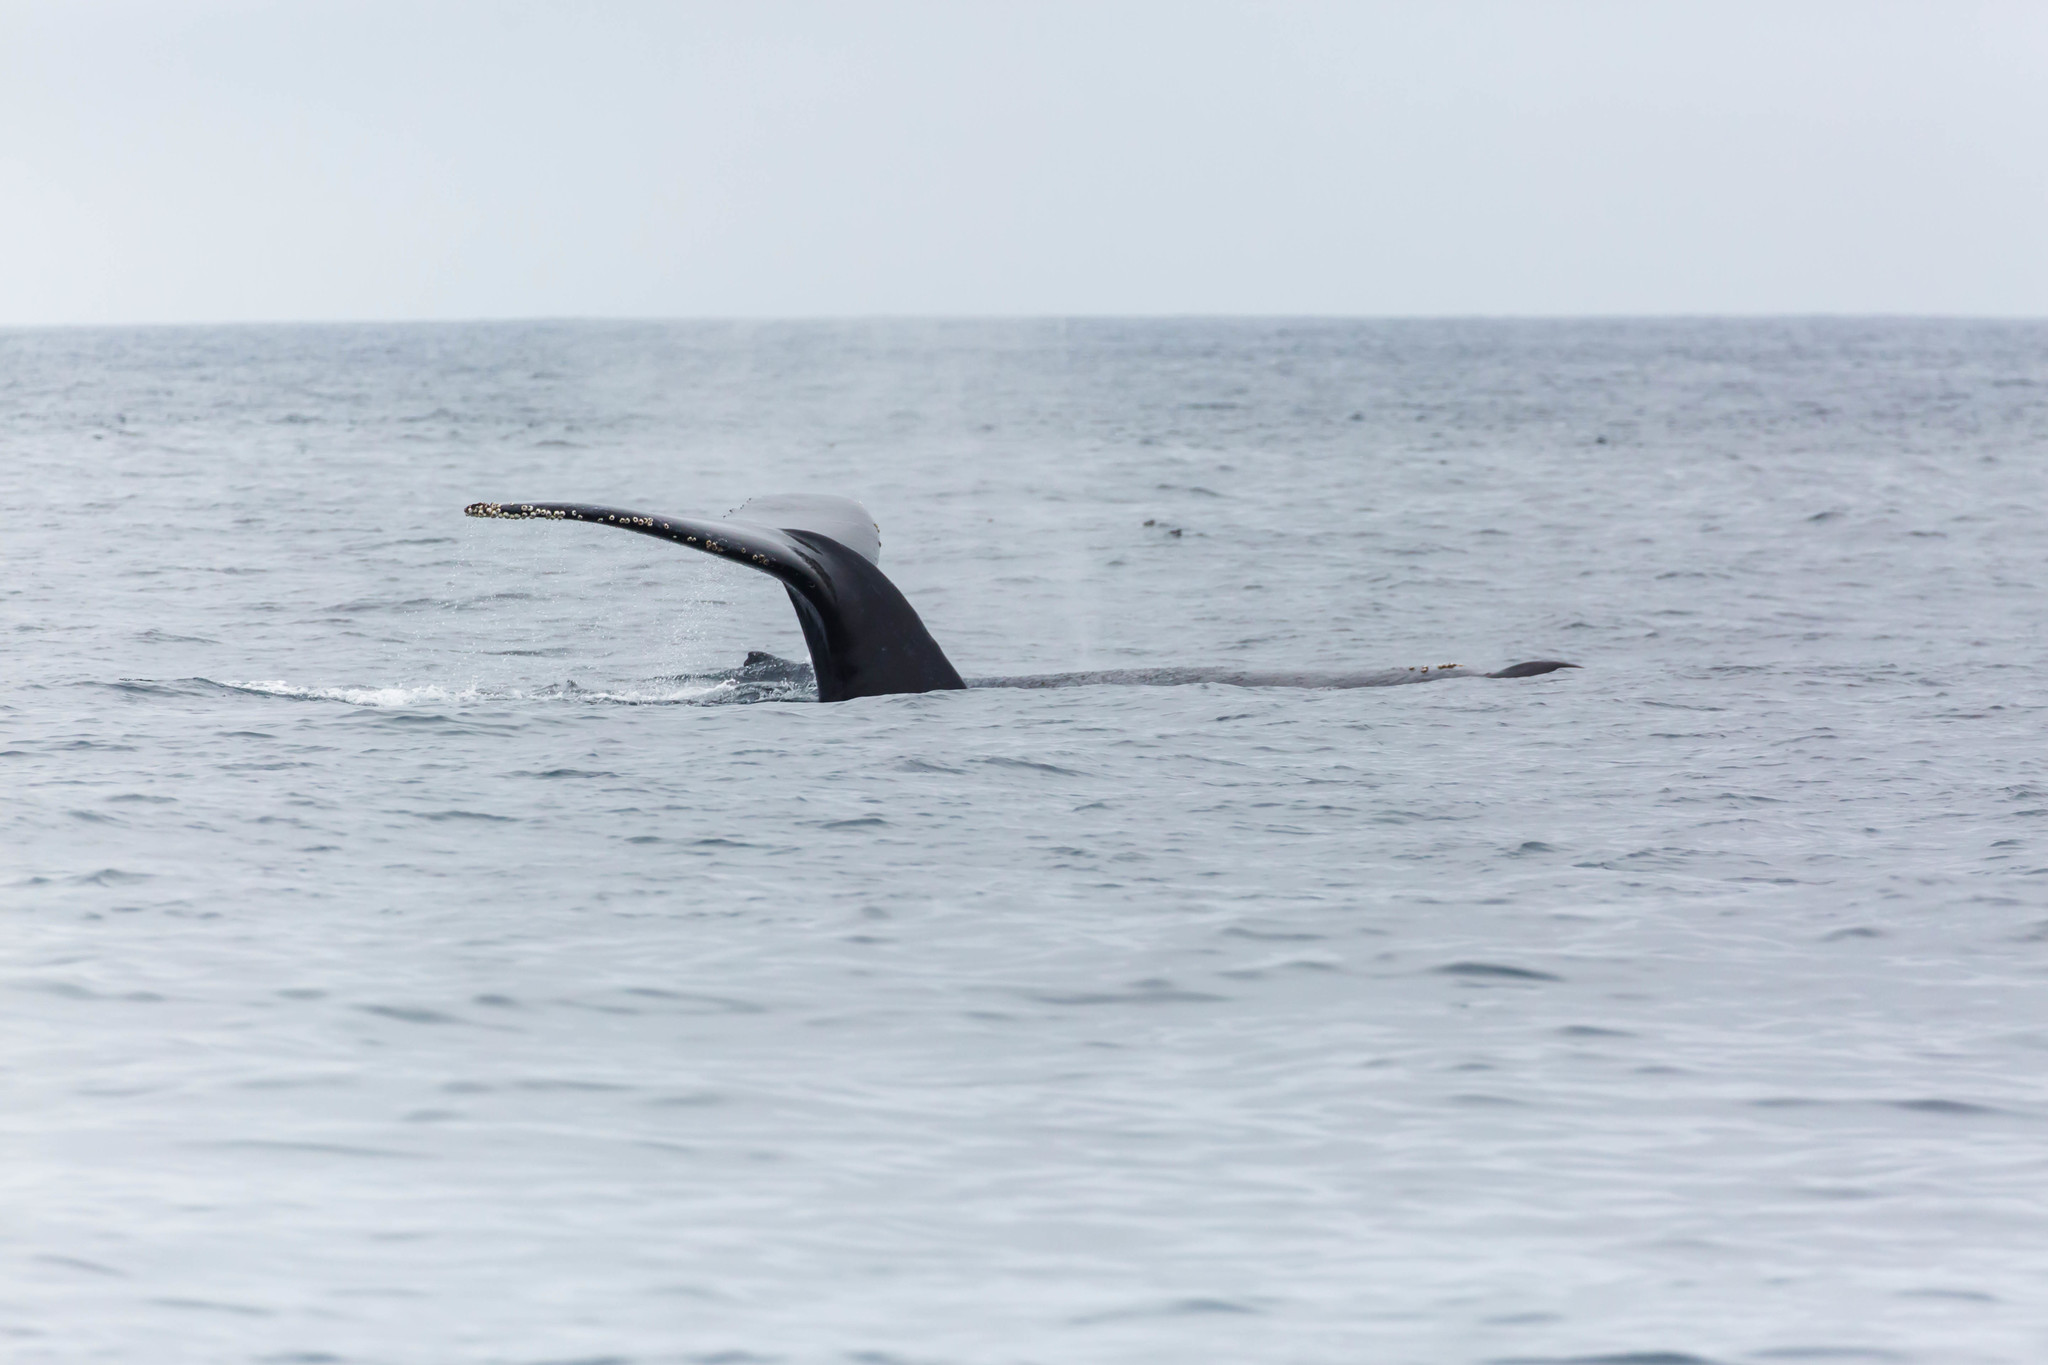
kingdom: Animalia
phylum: Chordata
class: Mammalia
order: Cetacea
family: Balaenopteridae
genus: Megaptera
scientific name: Megaptera novaeangliae
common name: Humpback whale
